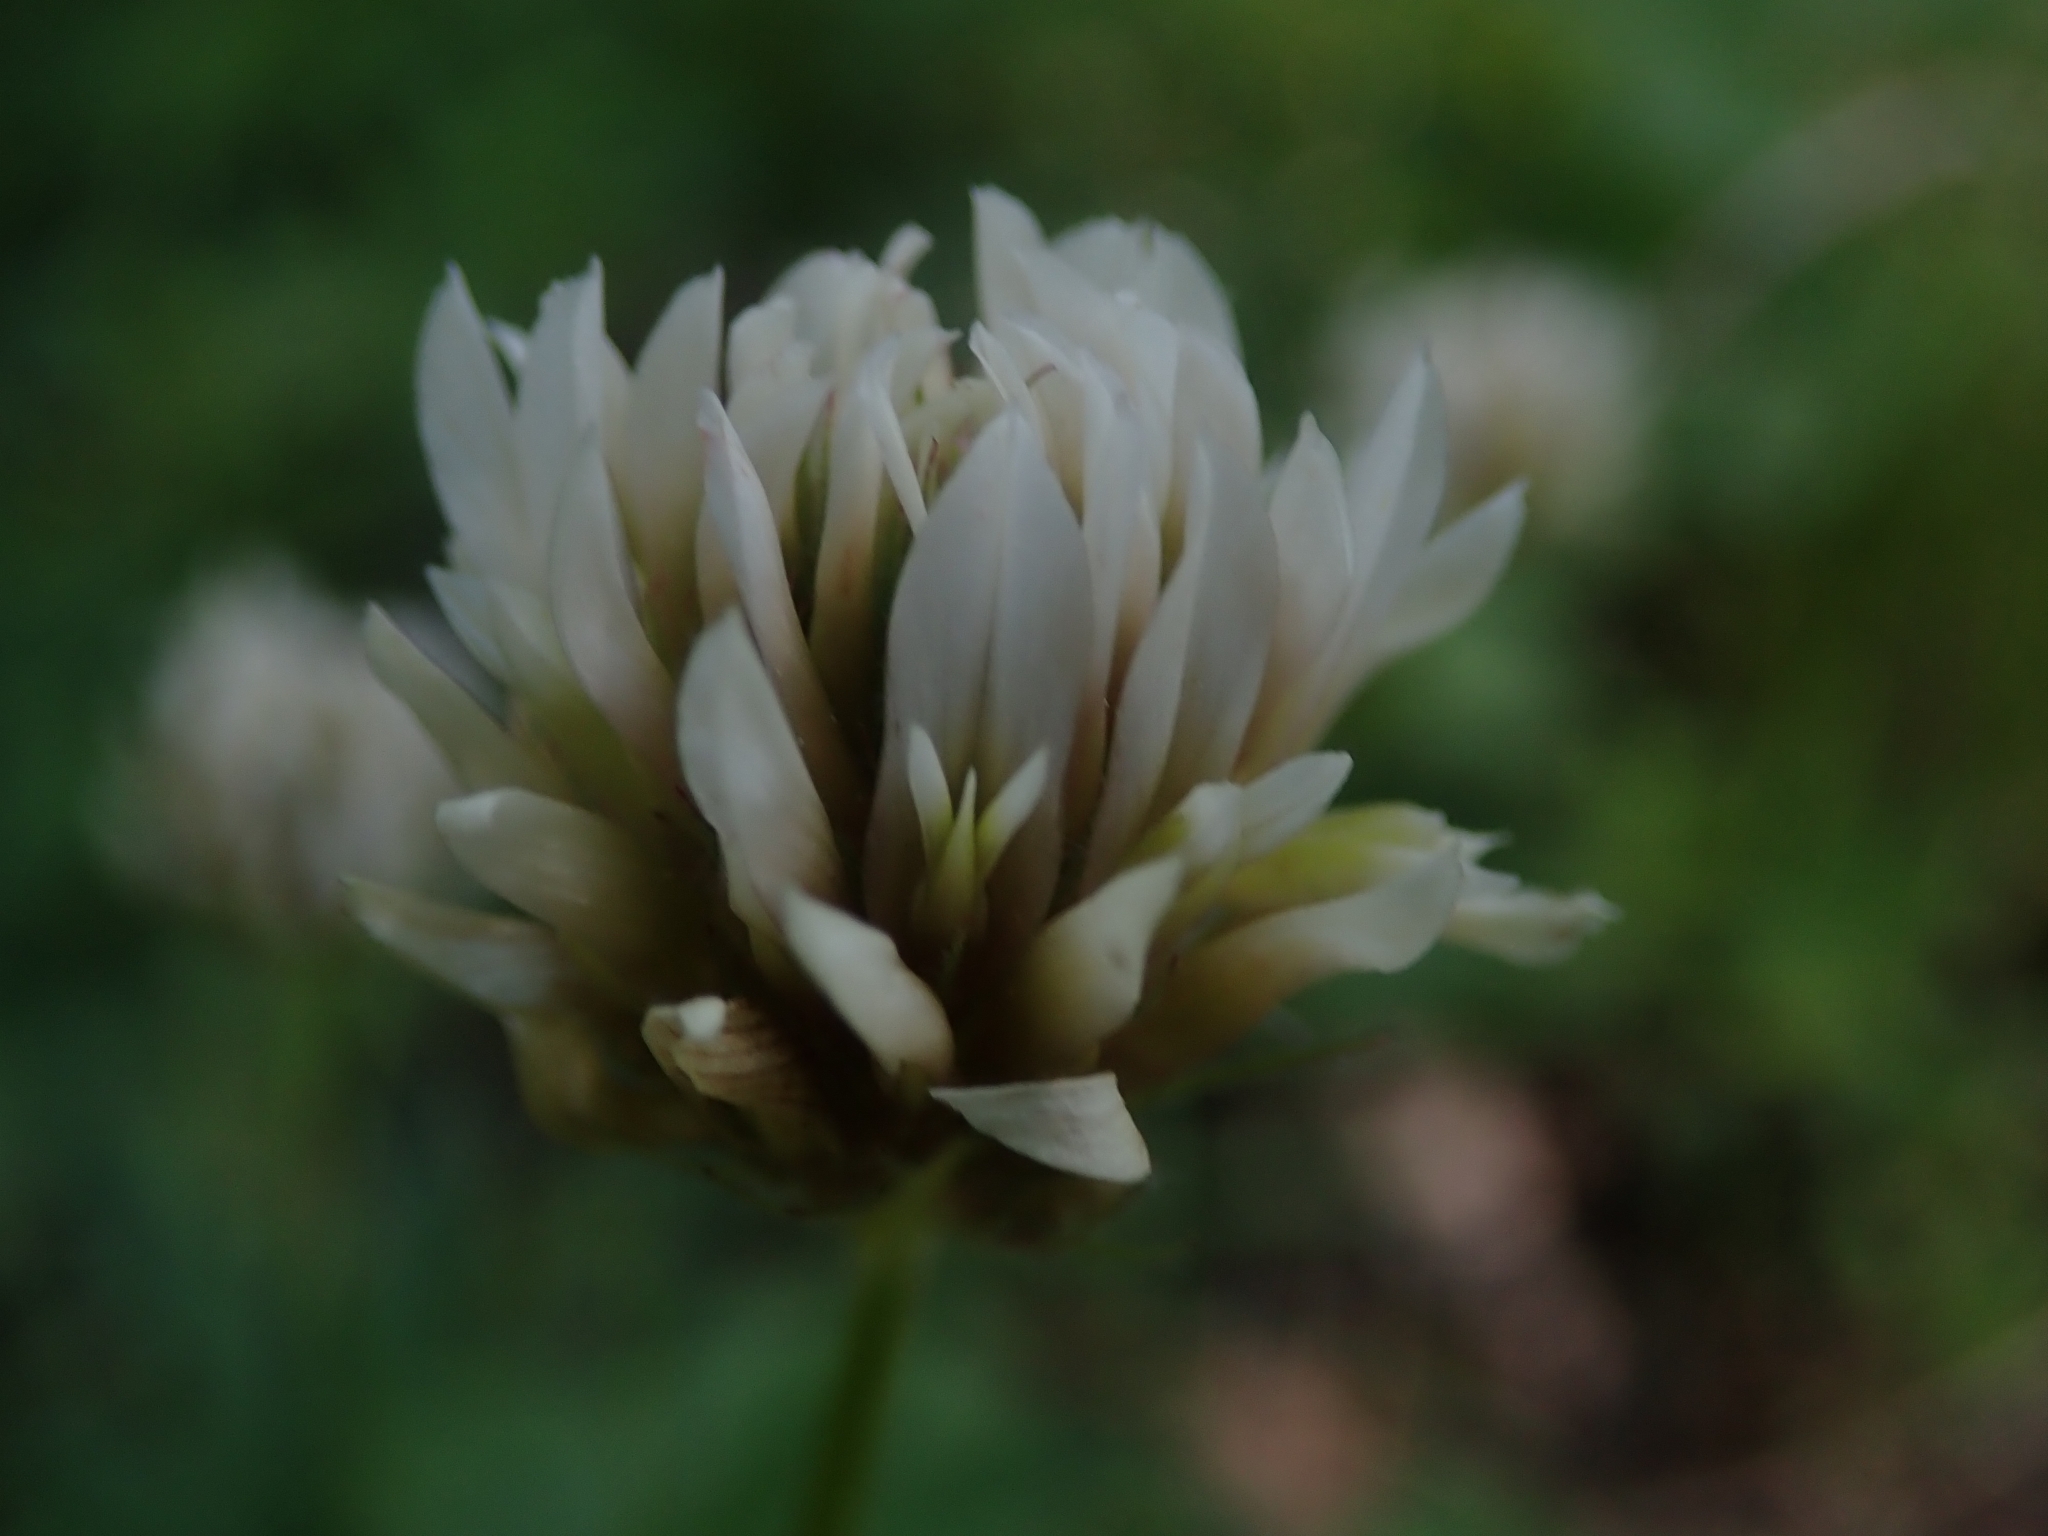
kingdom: Plantae
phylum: Tracheophyta
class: Magnoliopsida
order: Fabales
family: Fabaceae
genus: Trifolium
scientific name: Trifolium longipes
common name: Long-stalk clover
